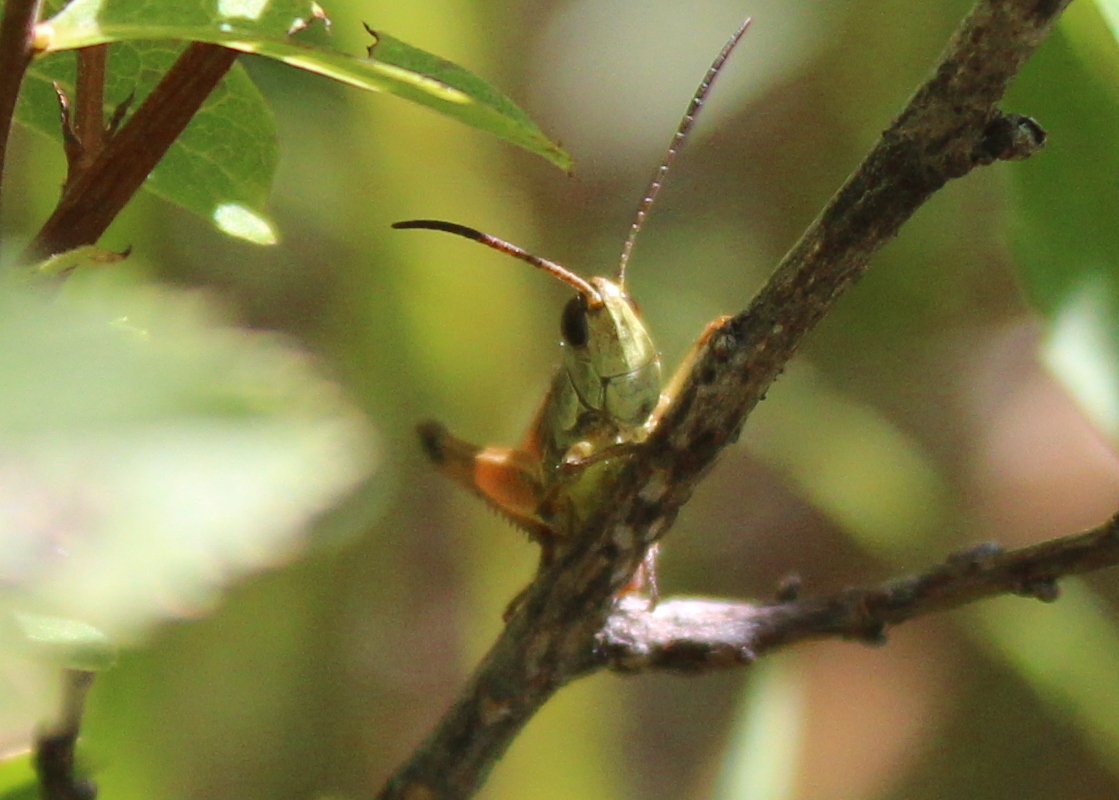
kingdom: Animalia
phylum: Arthropoda
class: Insecta
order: Orthoptera
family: Acrididae
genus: Pseudochorthippus
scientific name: Pseudochorthippus curtipennis
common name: Marsh meadow grasshopper
